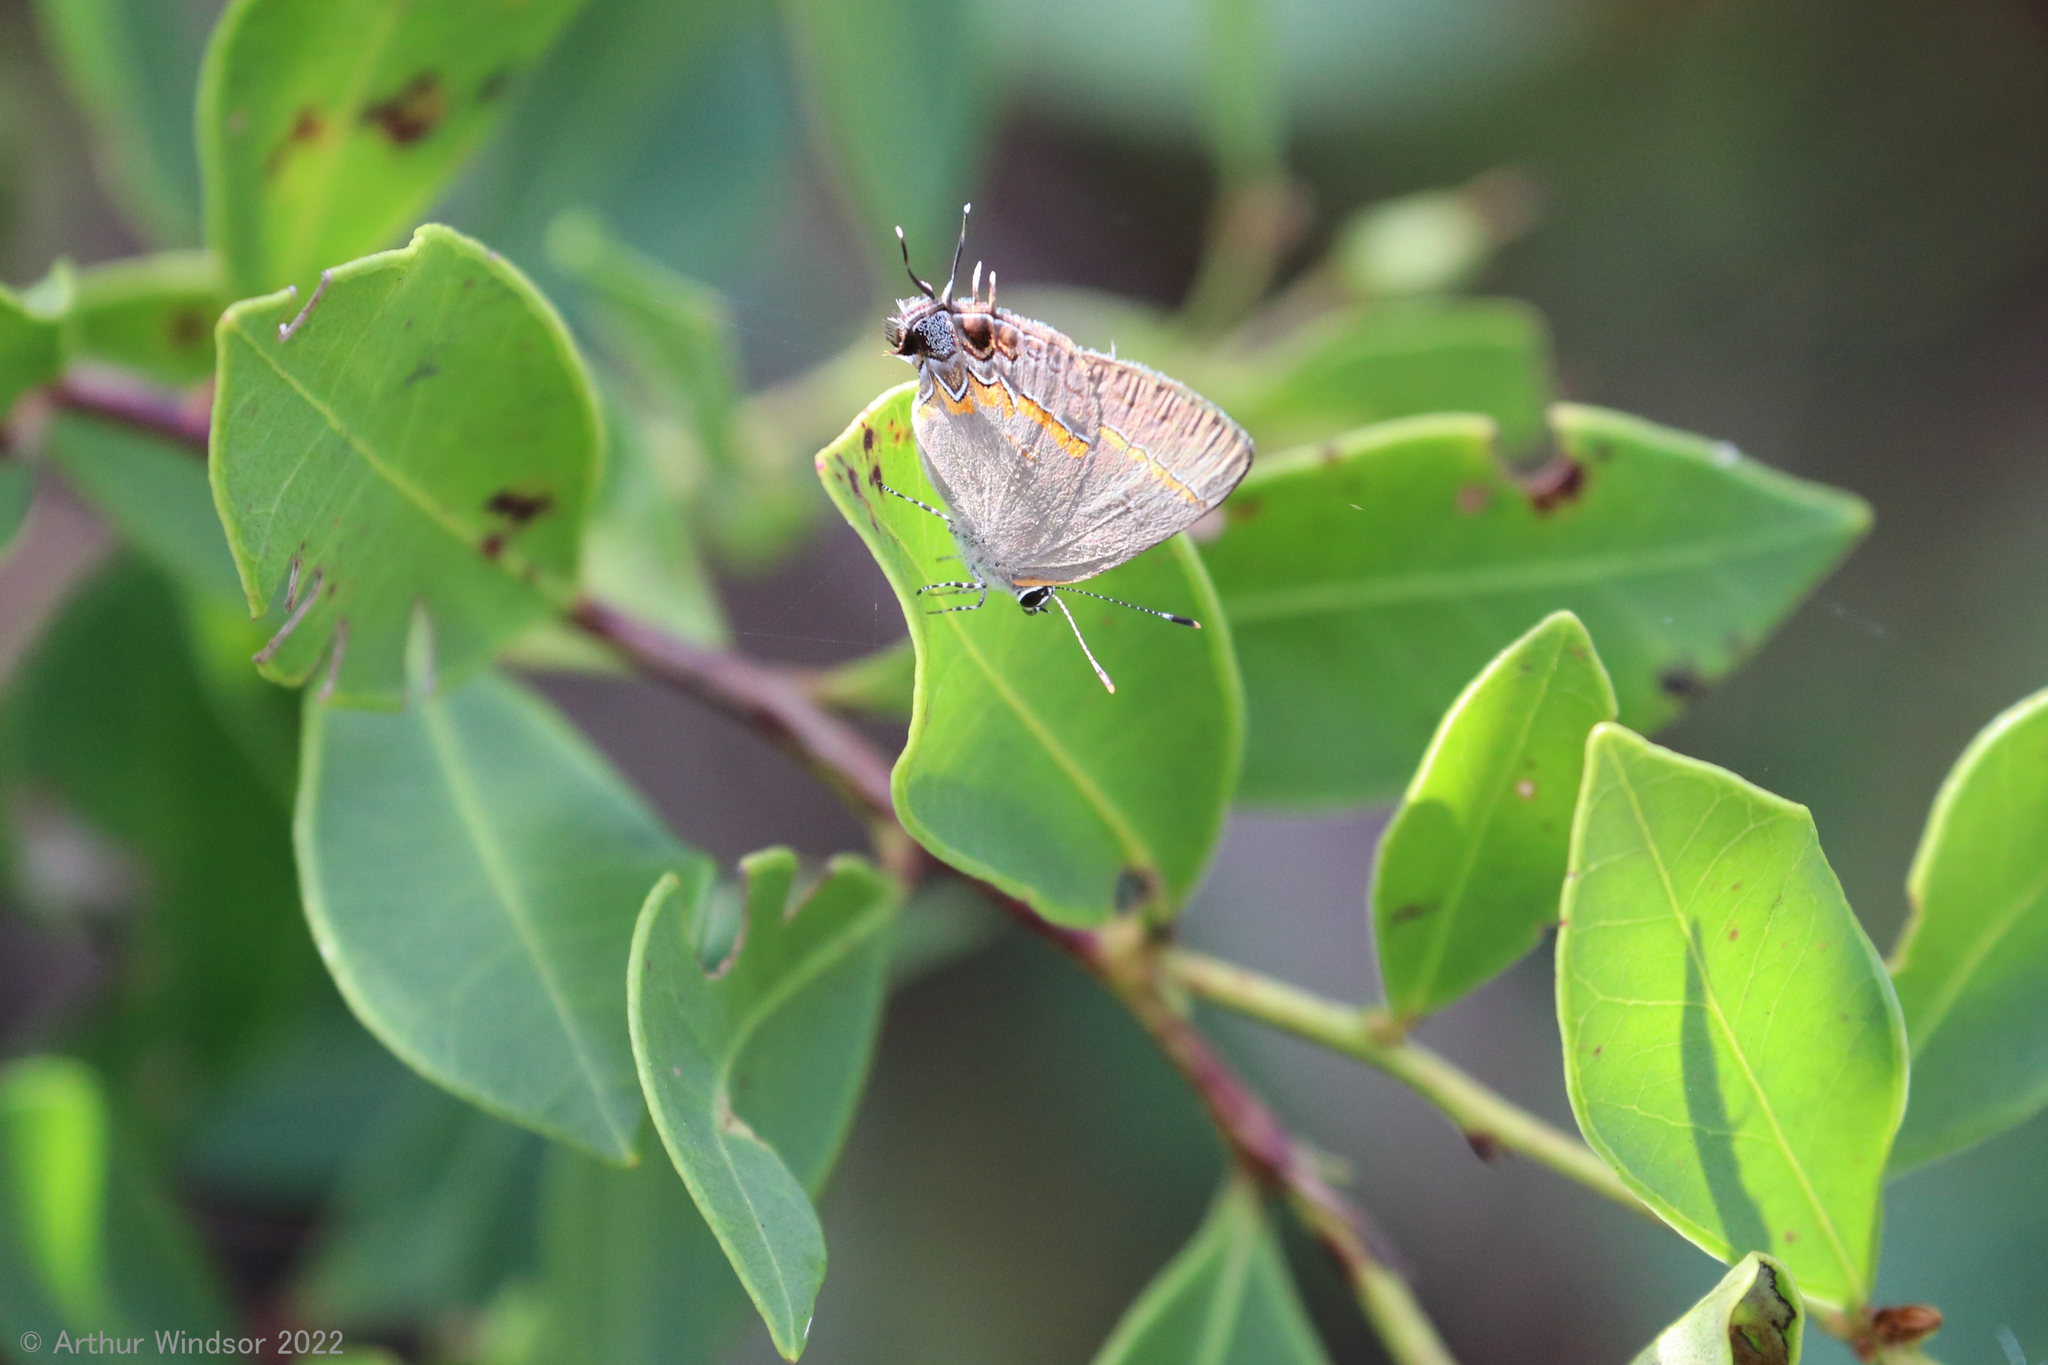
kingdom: Animalia
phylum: Arthropoda
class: Insecta
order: Lepidoptera
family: Lycaenidae
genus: Calycopis
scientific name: Calycopis cecrops
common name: Red-banded hairstreak
